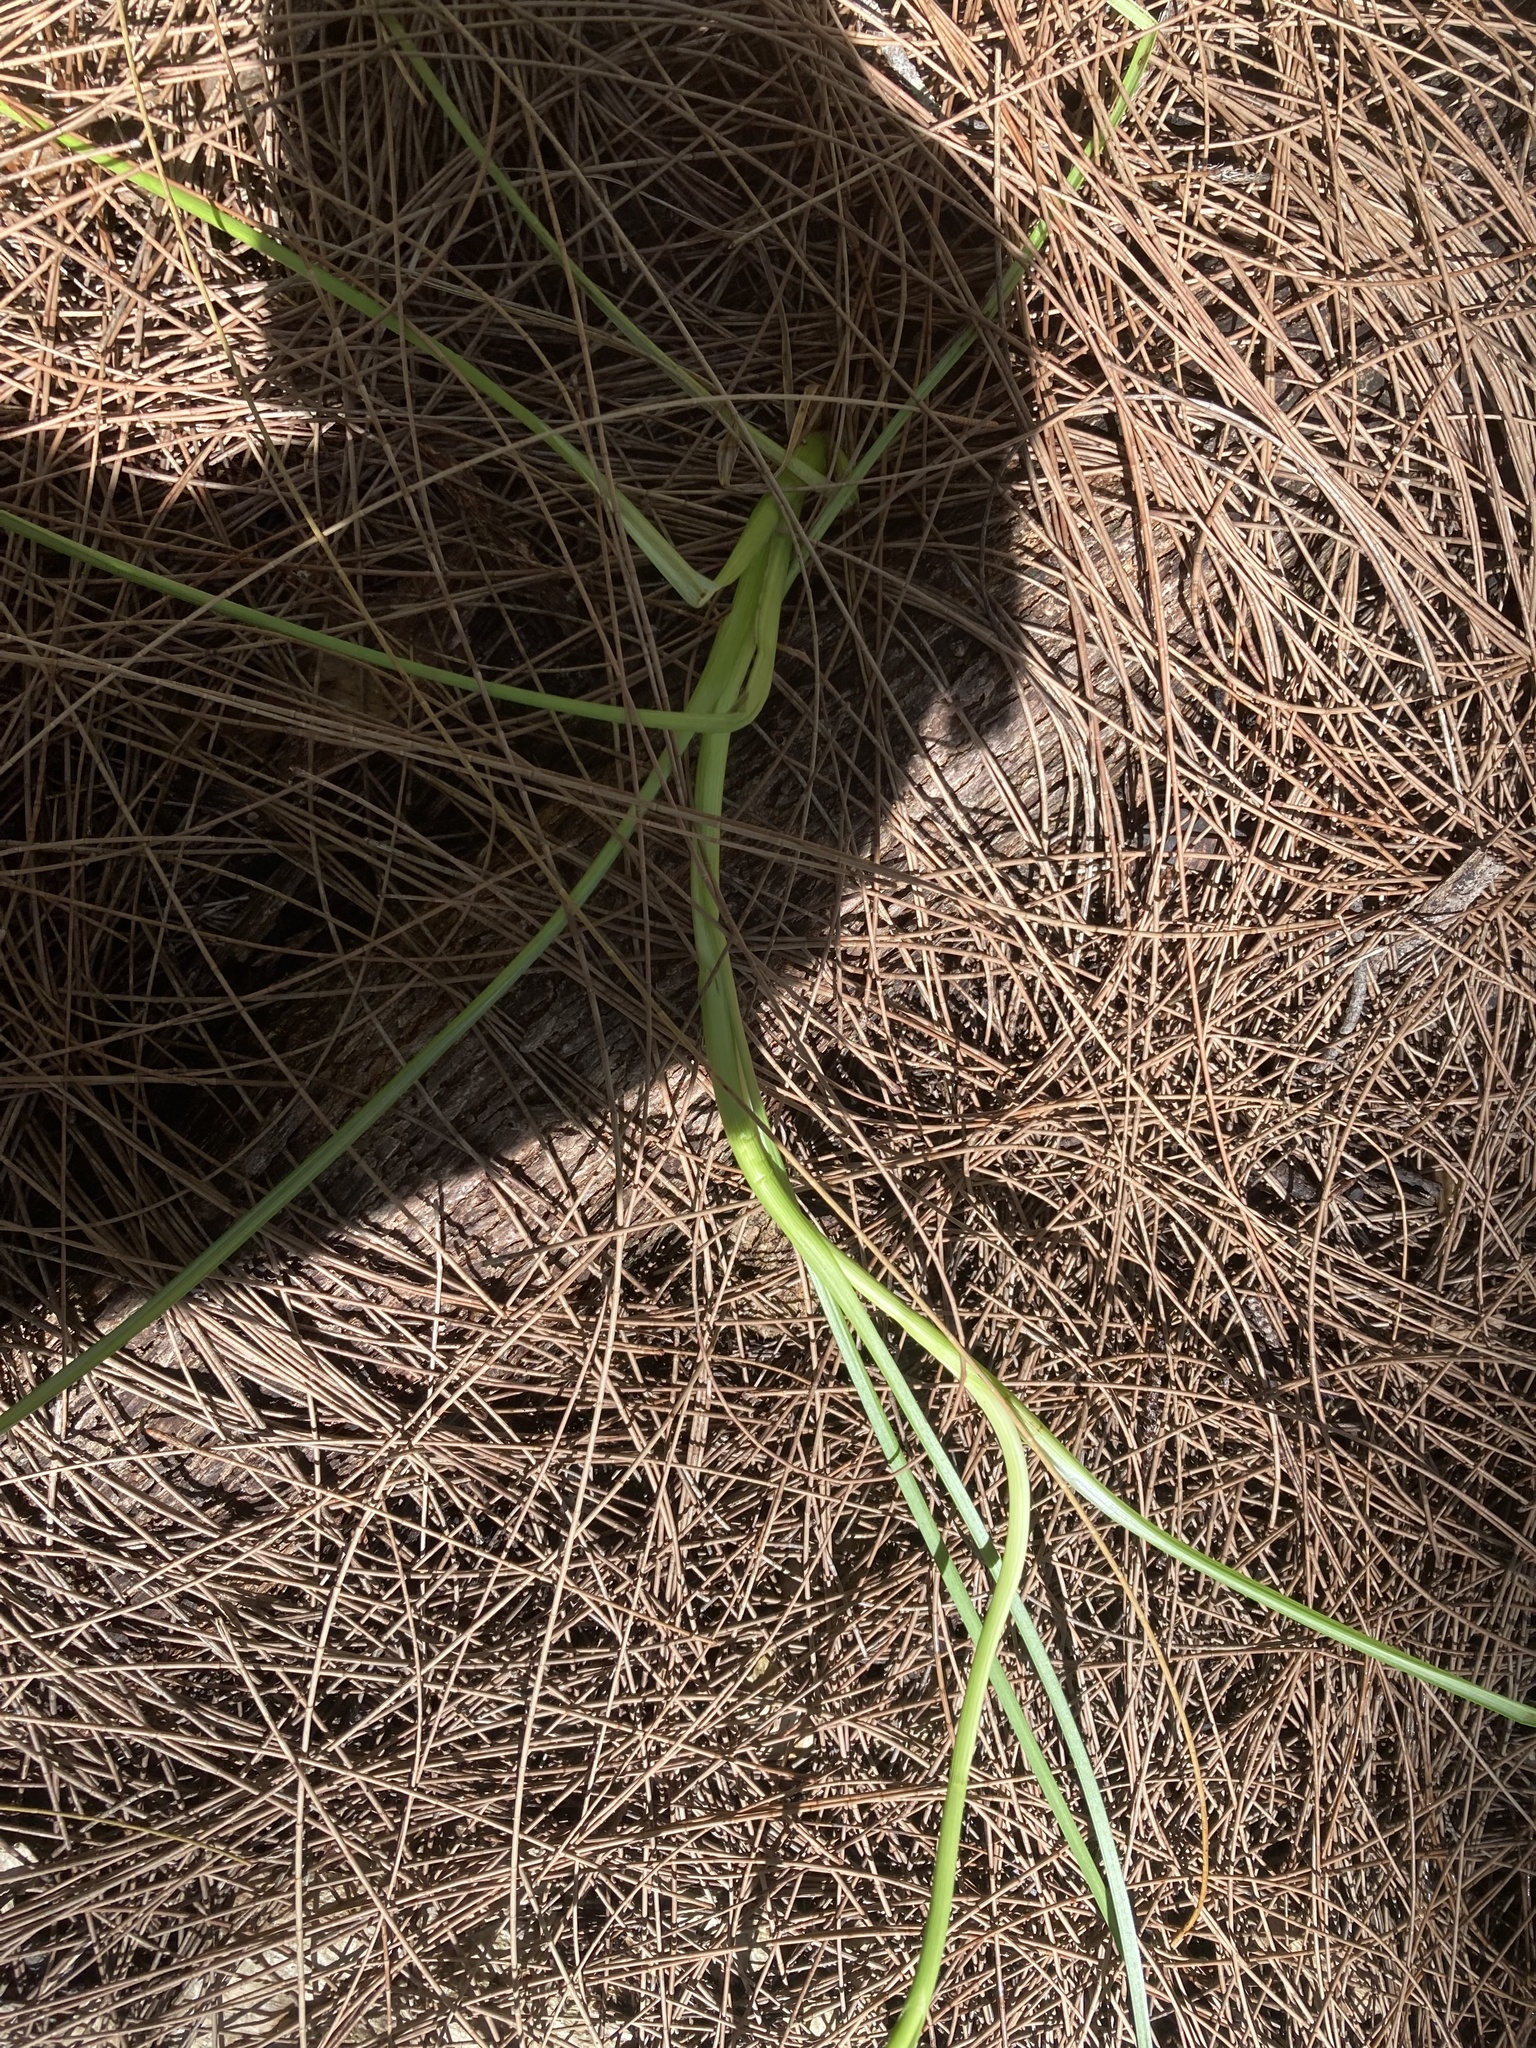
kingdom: Plantae
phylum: Tracheophyta
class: Liliopsida
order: Poales
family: Cyperaceae
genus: Rhynchospora
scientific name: Rhynchospora nitens
